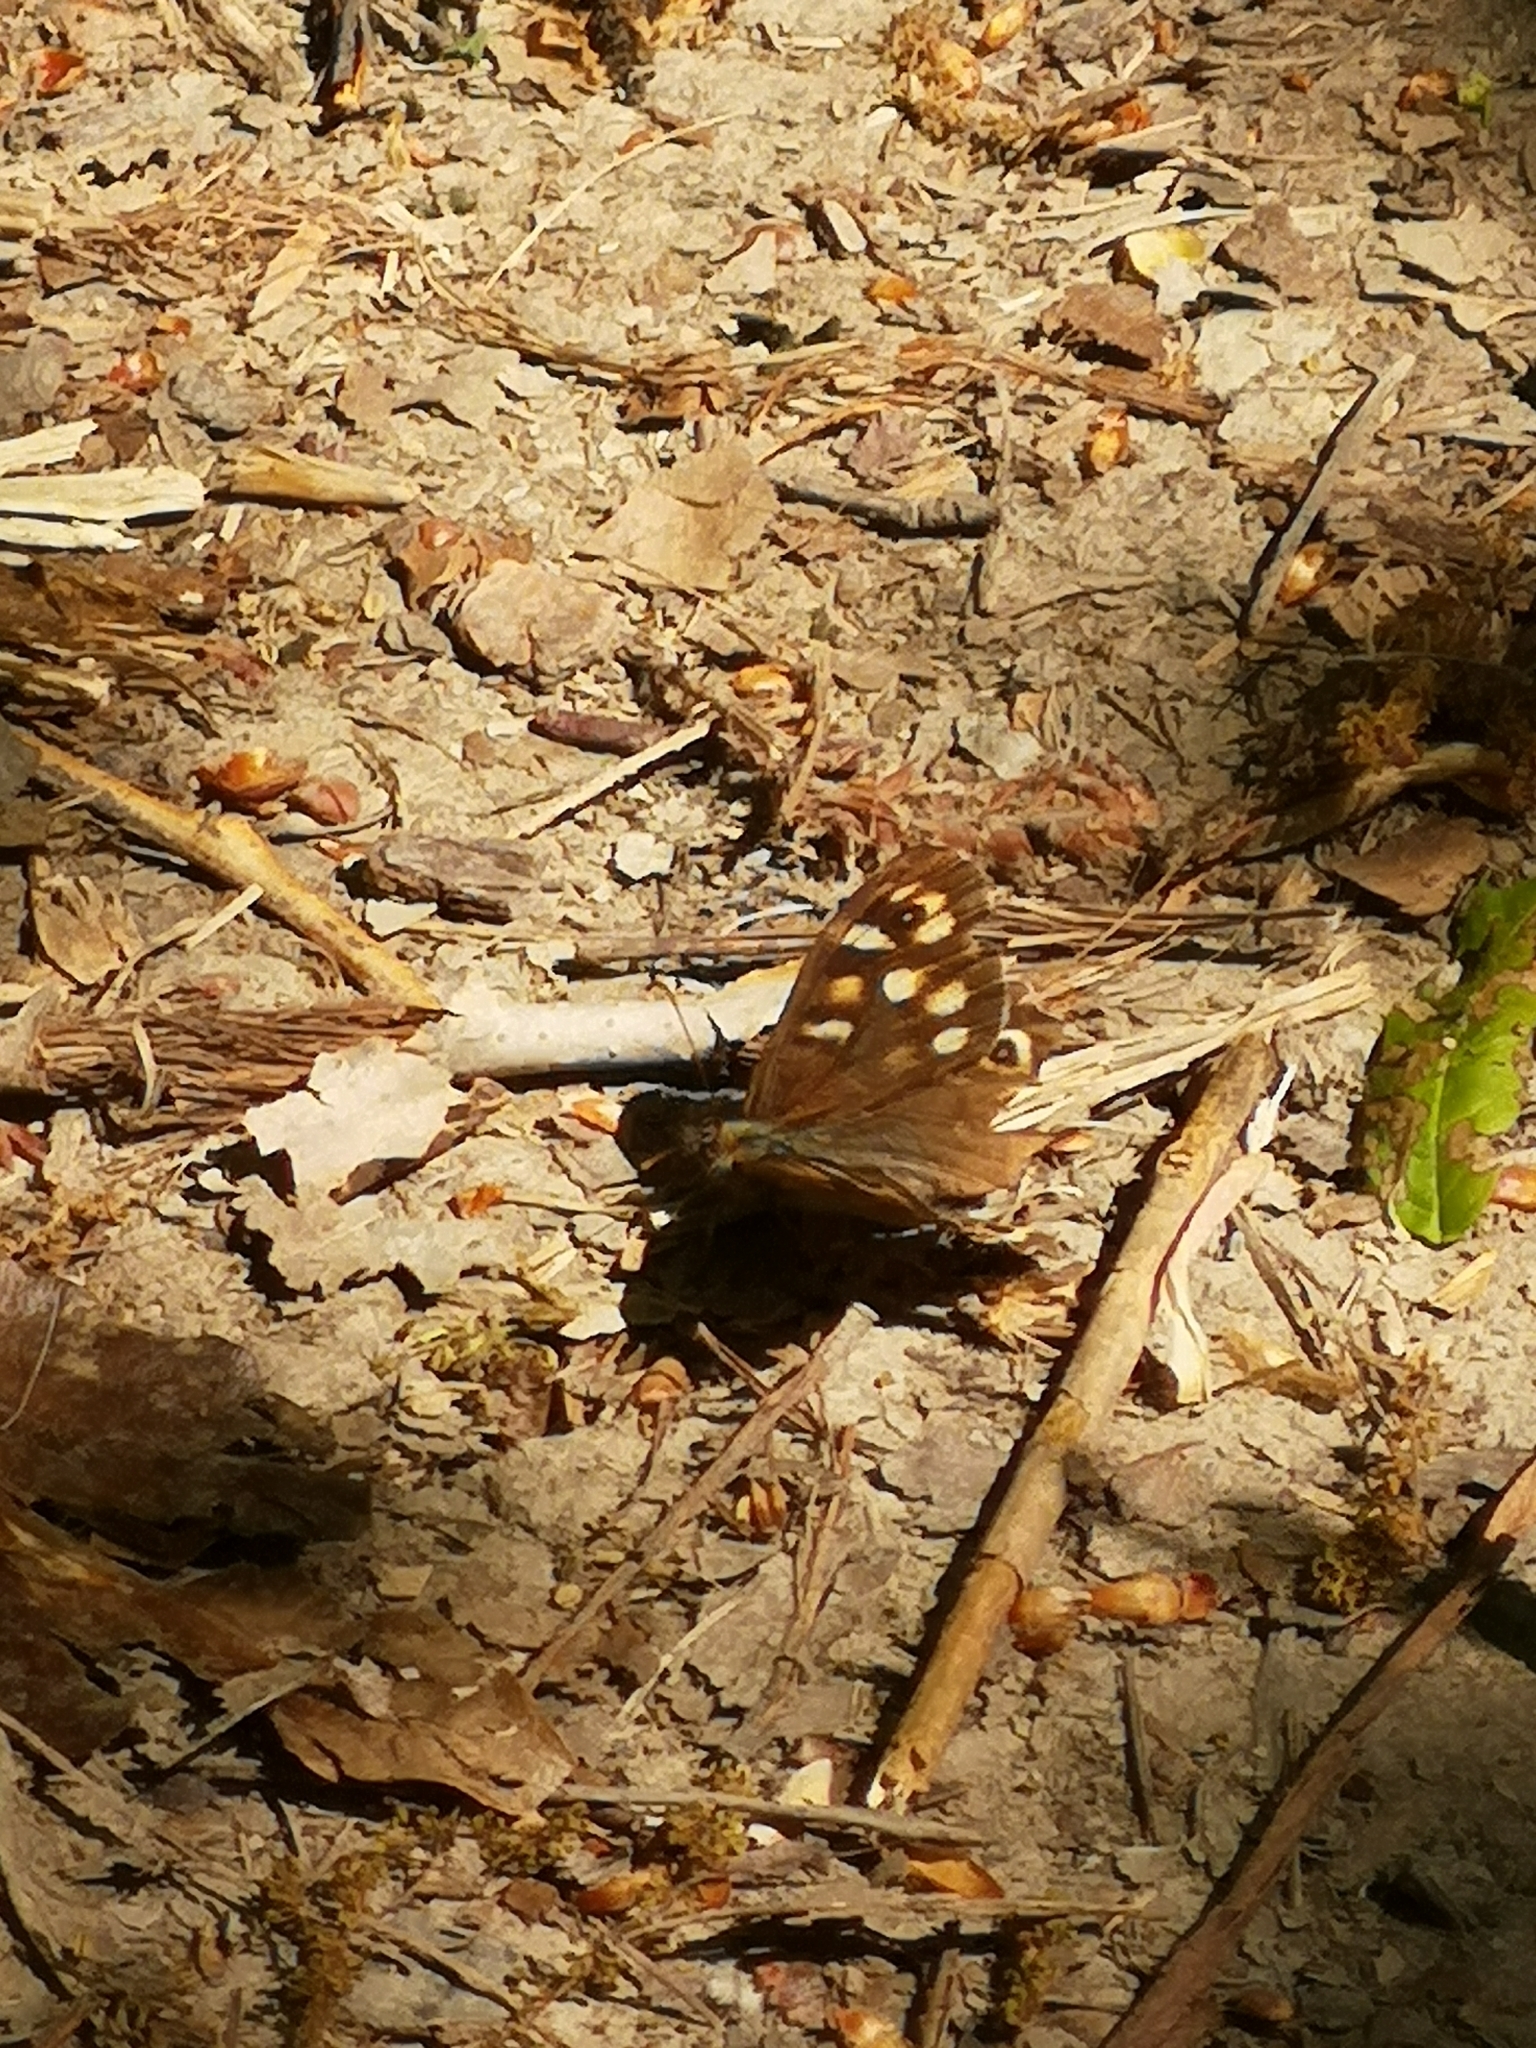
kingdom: Animalia
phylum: Arthropoda
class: Insecta
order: Lepidoptera
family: Nymphalidae
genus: Pararge
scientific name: Pararge aegeria
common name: Speckled wood
